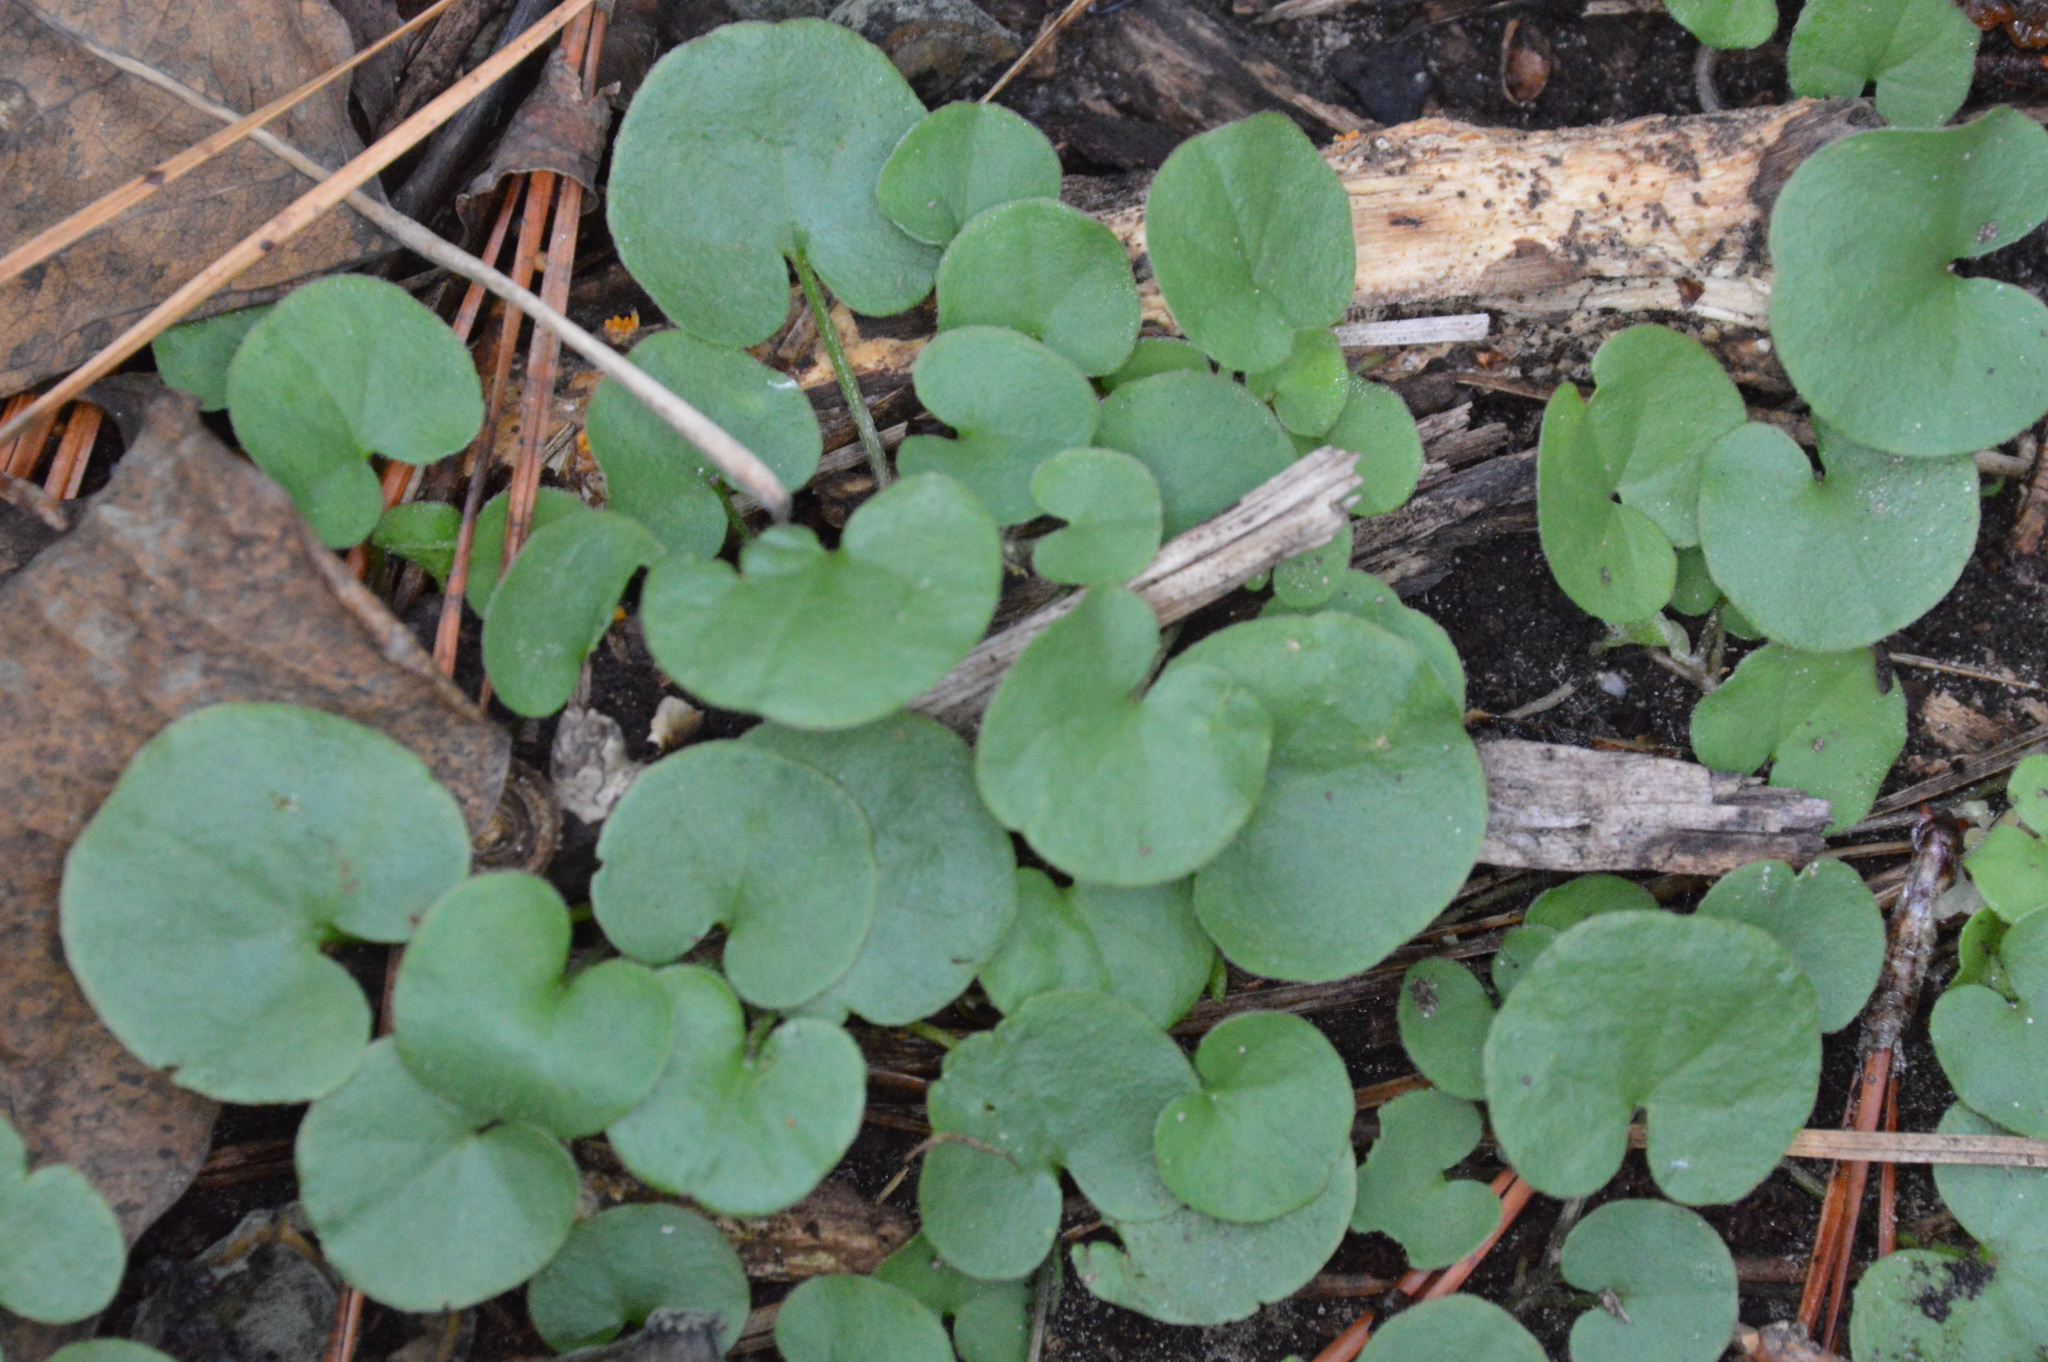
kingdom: Plantae
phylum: Tracheophyta
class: Magnoliopsida
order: Solanales
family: Convolvulaceae
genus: Dichondra
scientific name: Dichondra carolinensis
